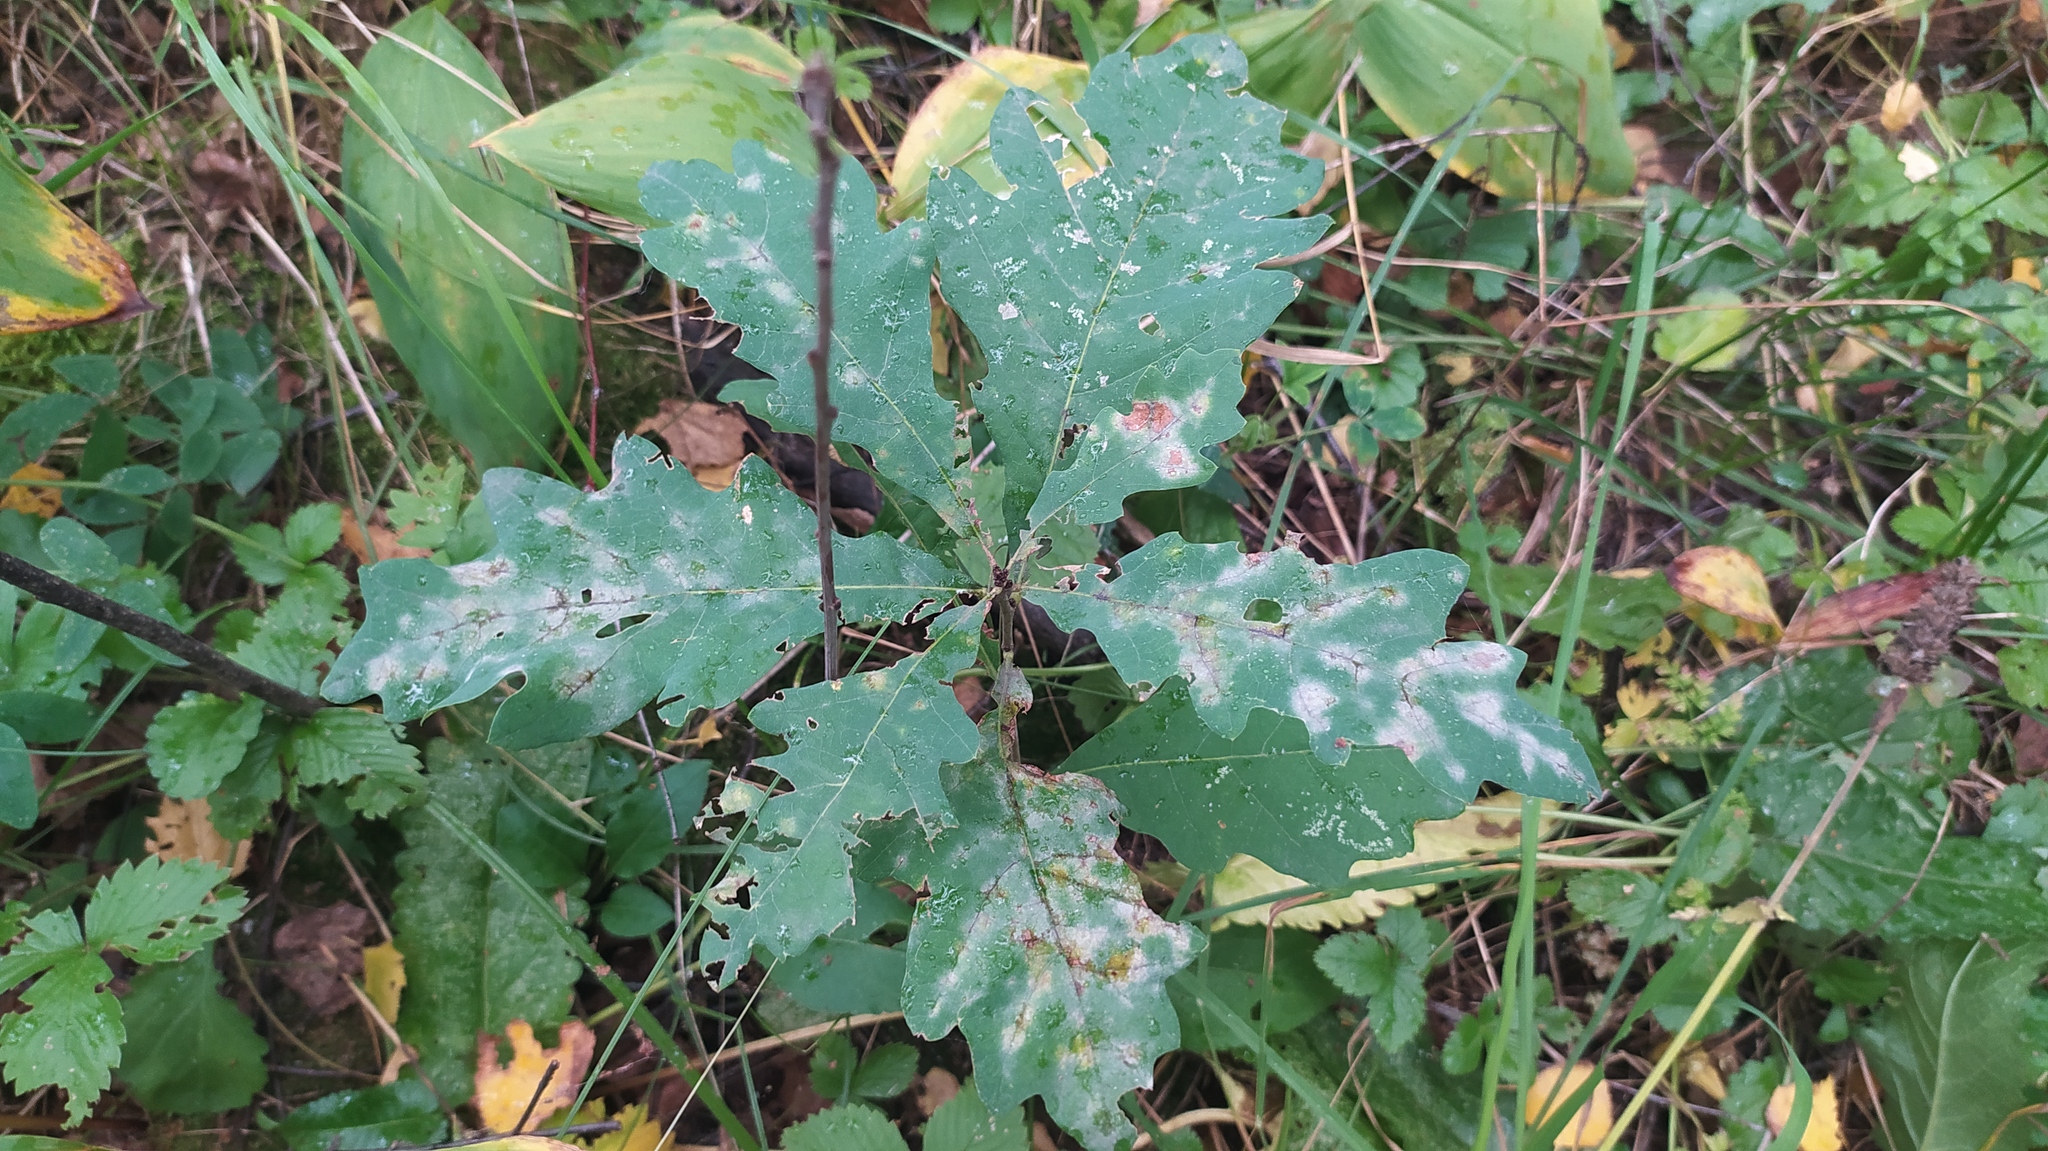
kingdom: Plantae
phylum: Tracheophyta
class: Magnoliopsida
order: Fagales
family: Fagaceae
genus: Quercus
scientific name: Quercus robur
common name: Pedunculate oak
